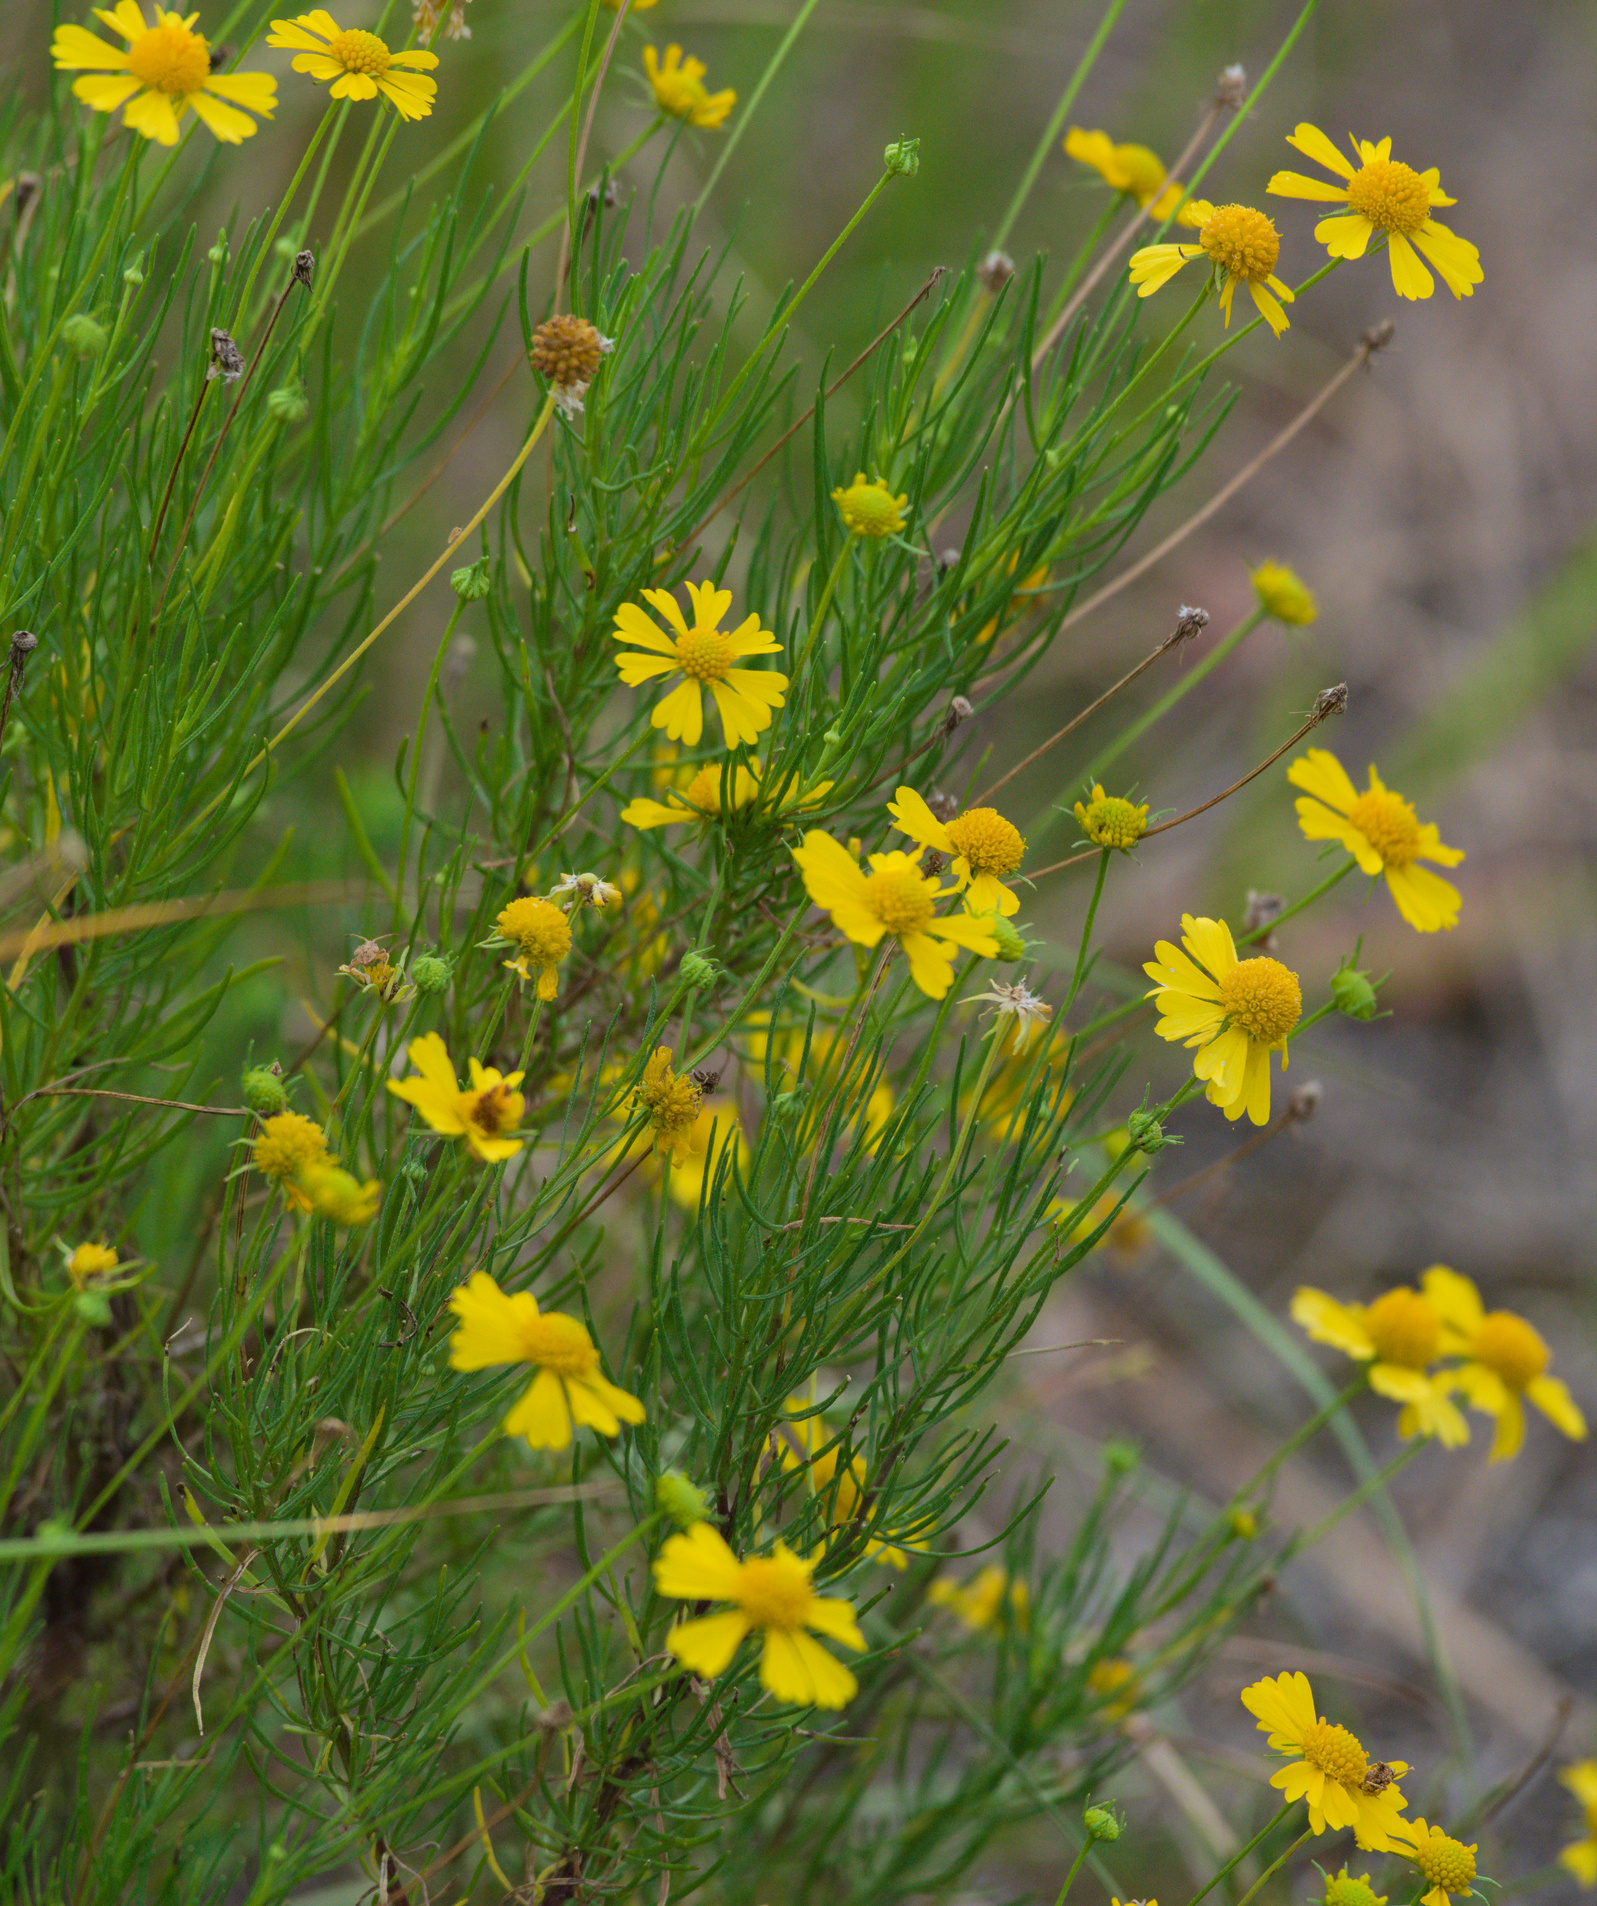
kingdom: Plantae
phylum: Tracheophyta
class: Magnoliopsida
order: Asterales
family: Asteraceae
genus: Helenium
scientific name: Helenium amarum
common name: Bitter sneezeweed
